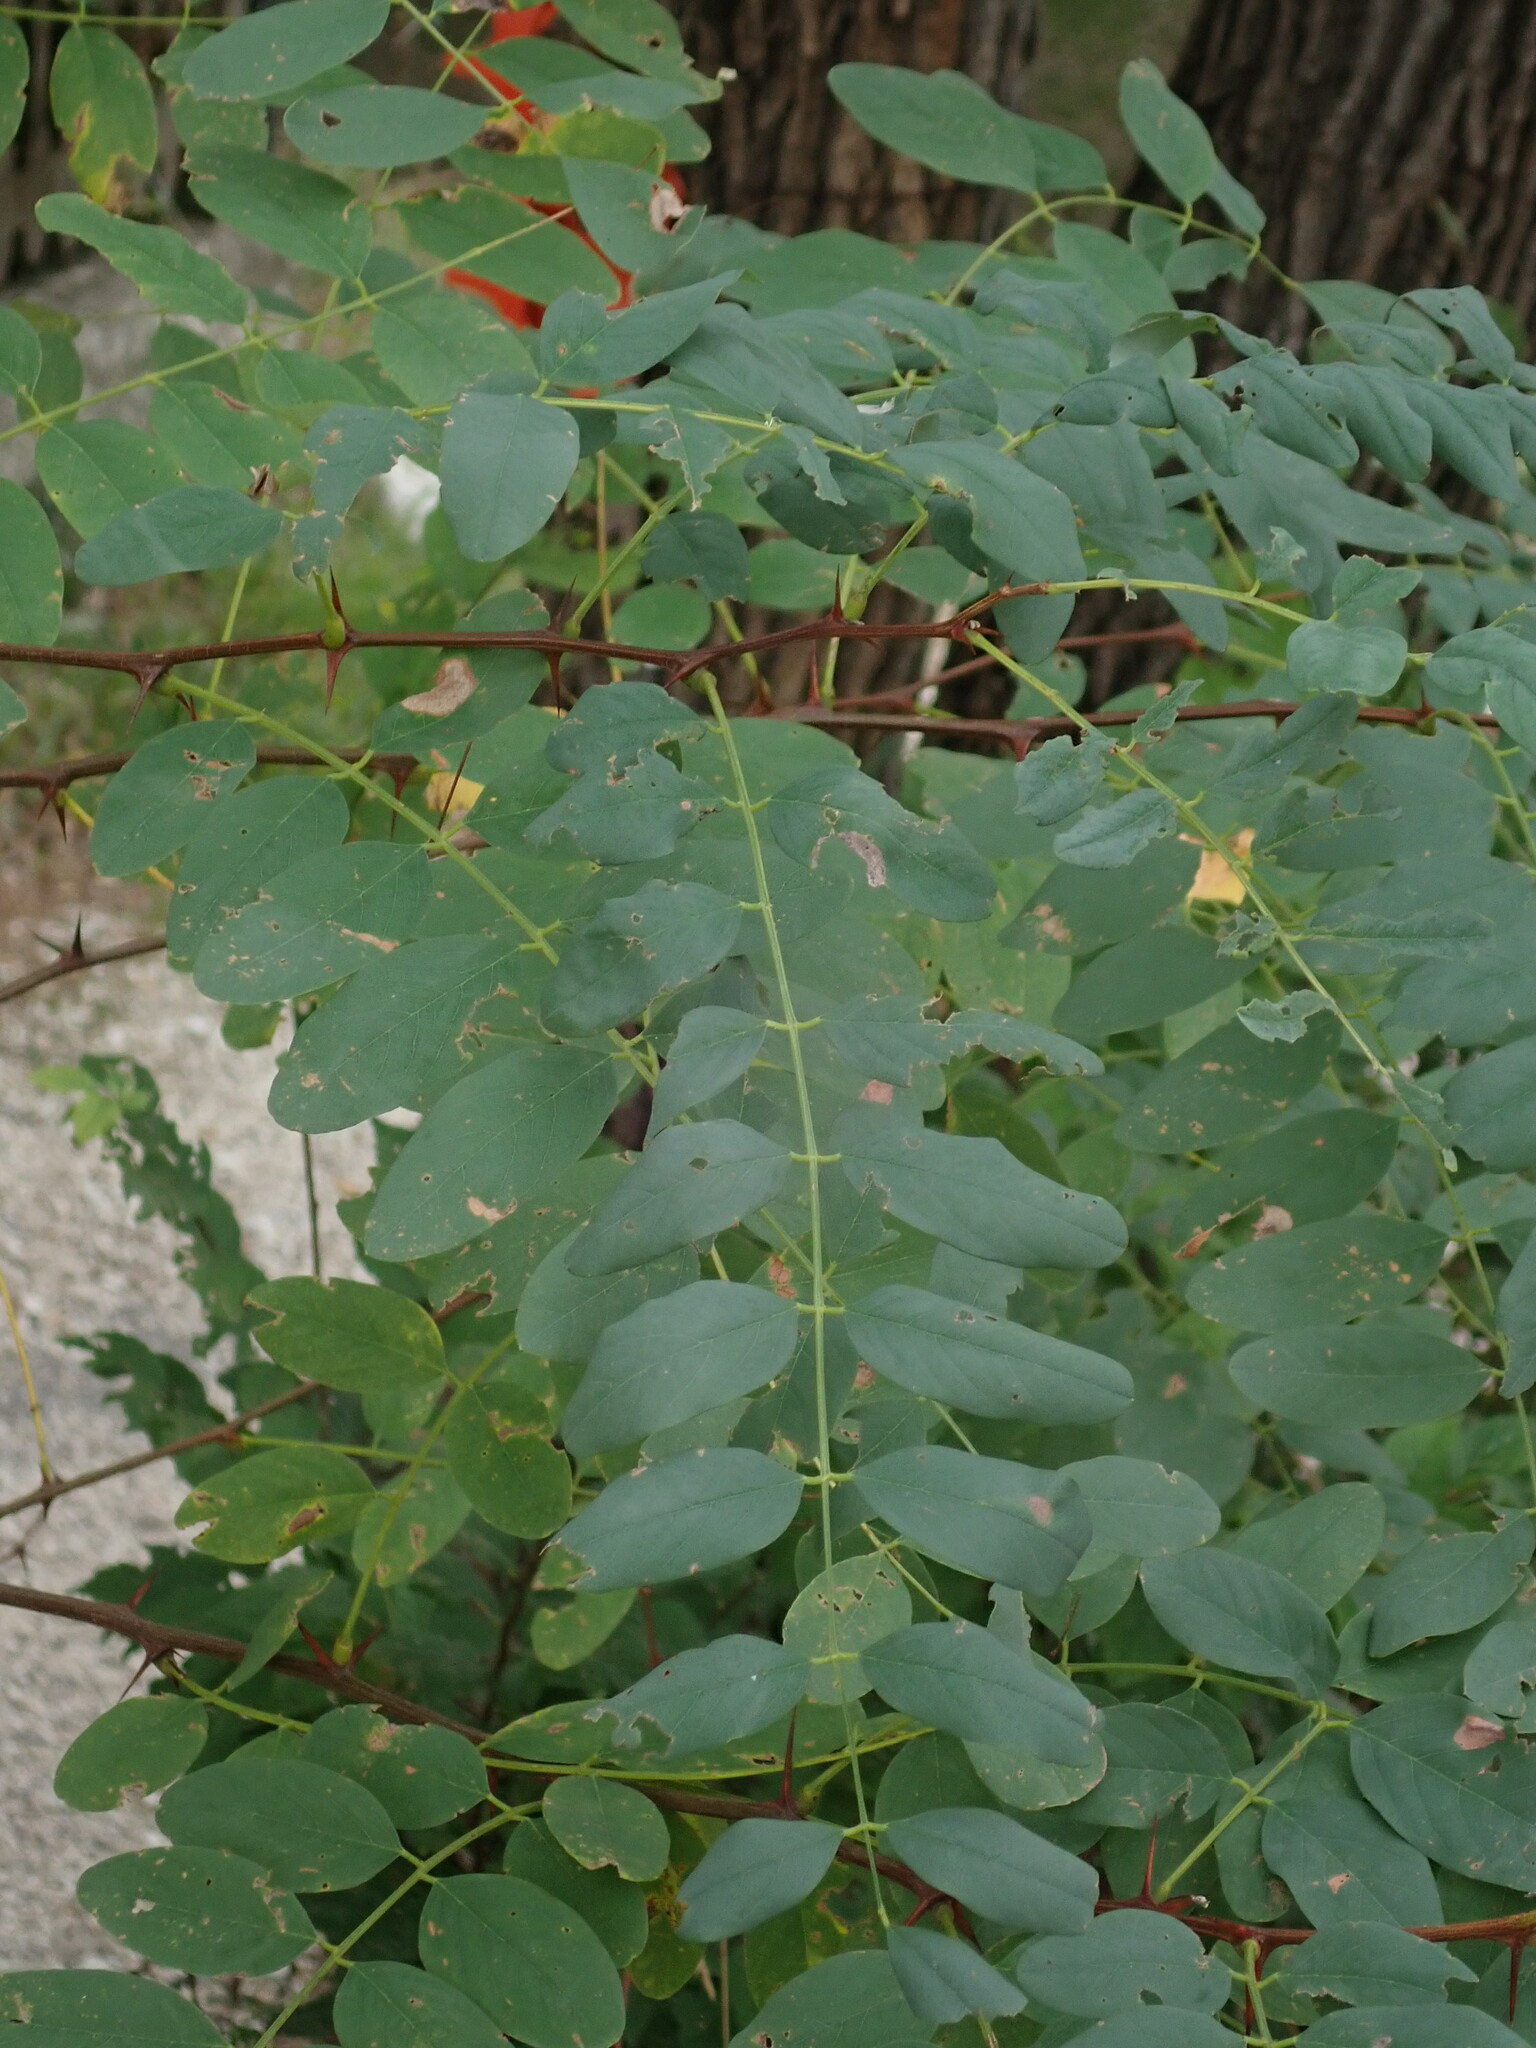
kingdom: Plantae
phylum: Tracheophyta
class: Magnoliopsida
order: Fabales
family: Fabaceae
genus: Robinia
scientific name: Robinia pseudoacacia
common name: Black locust
